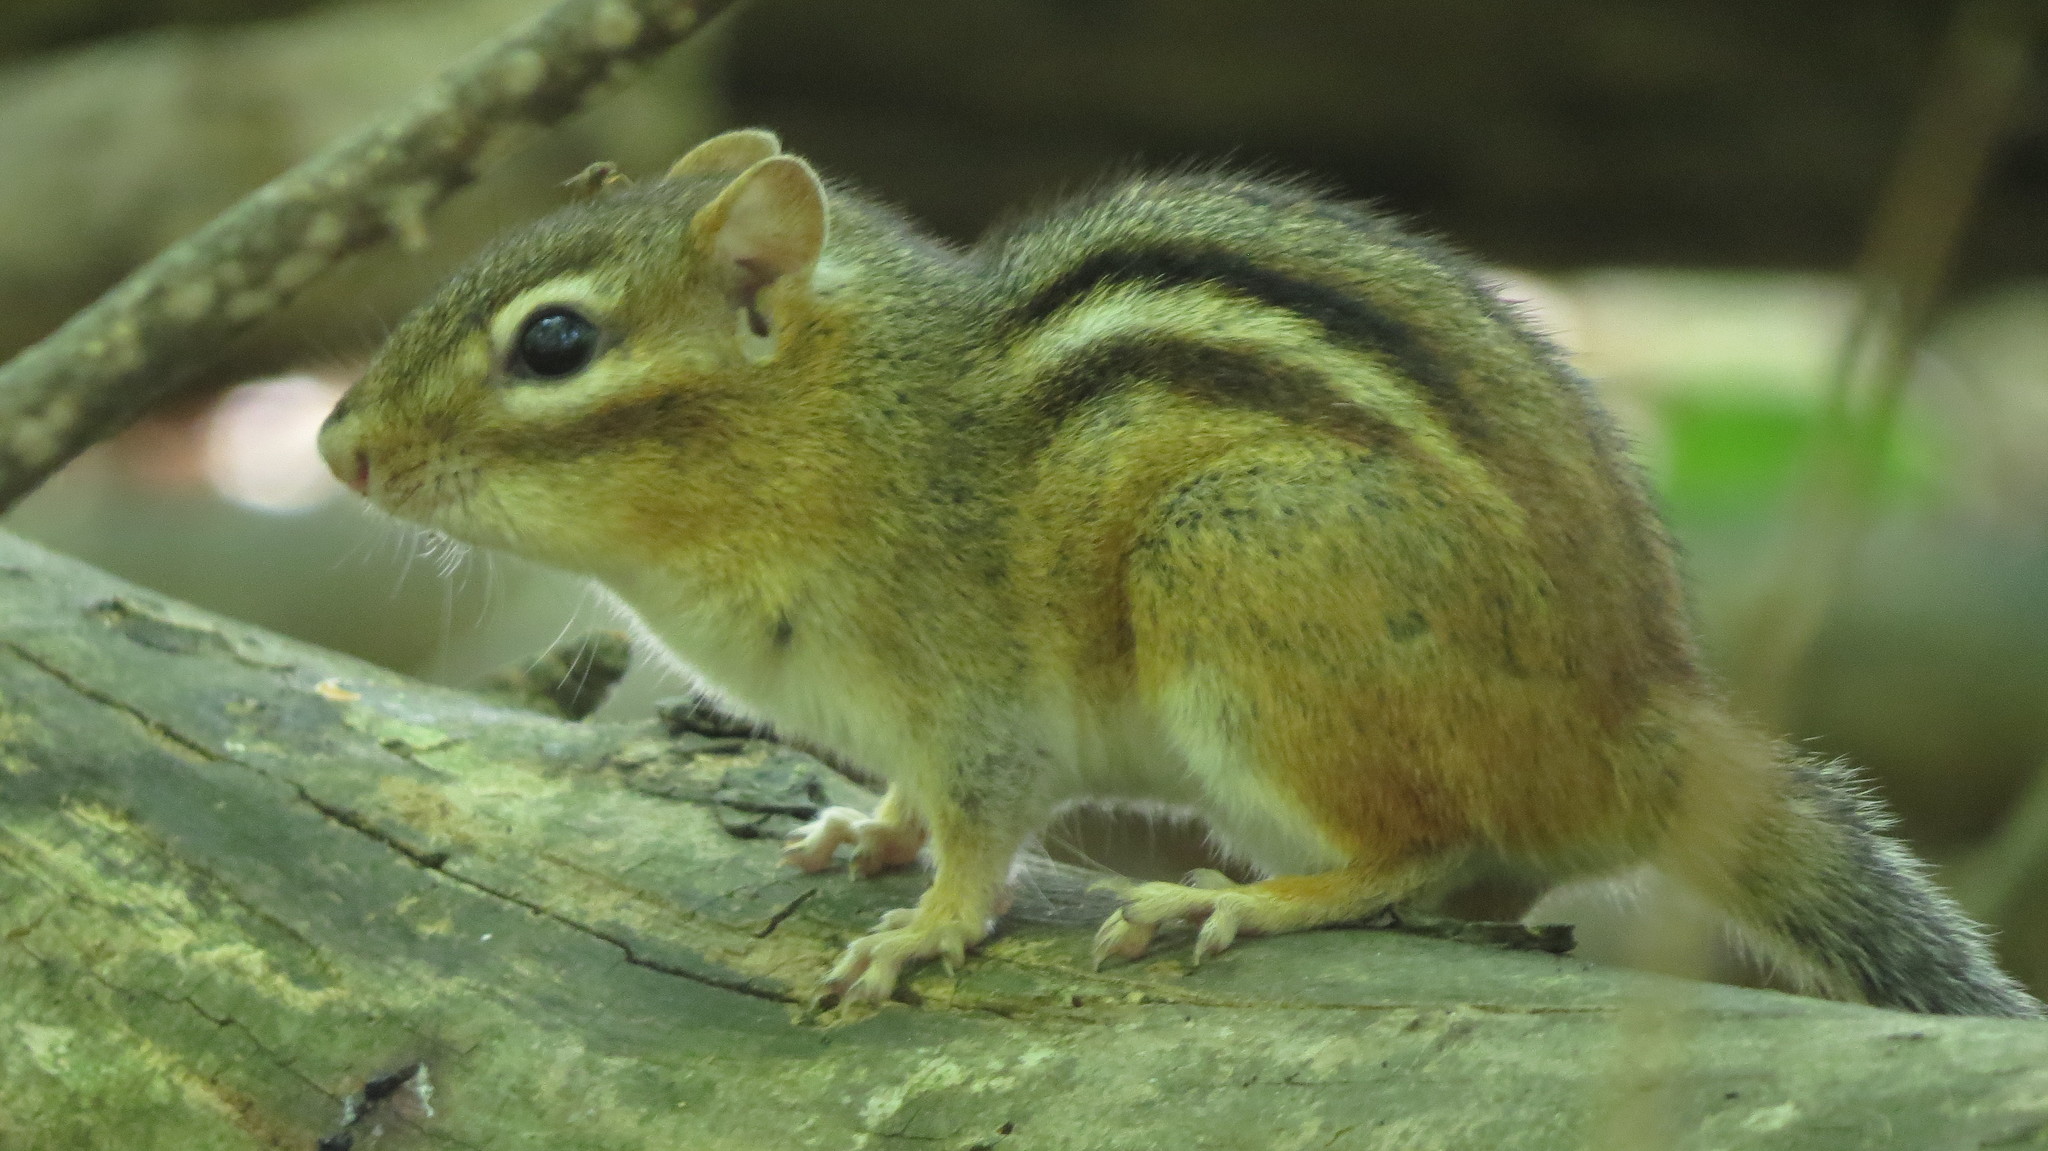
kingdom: Animalia
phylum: Chordata
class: Mammalia
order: Rodentia
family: Sciuridae
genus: Tamias
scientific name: Tamias striatus
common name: Eastern chipmunk
